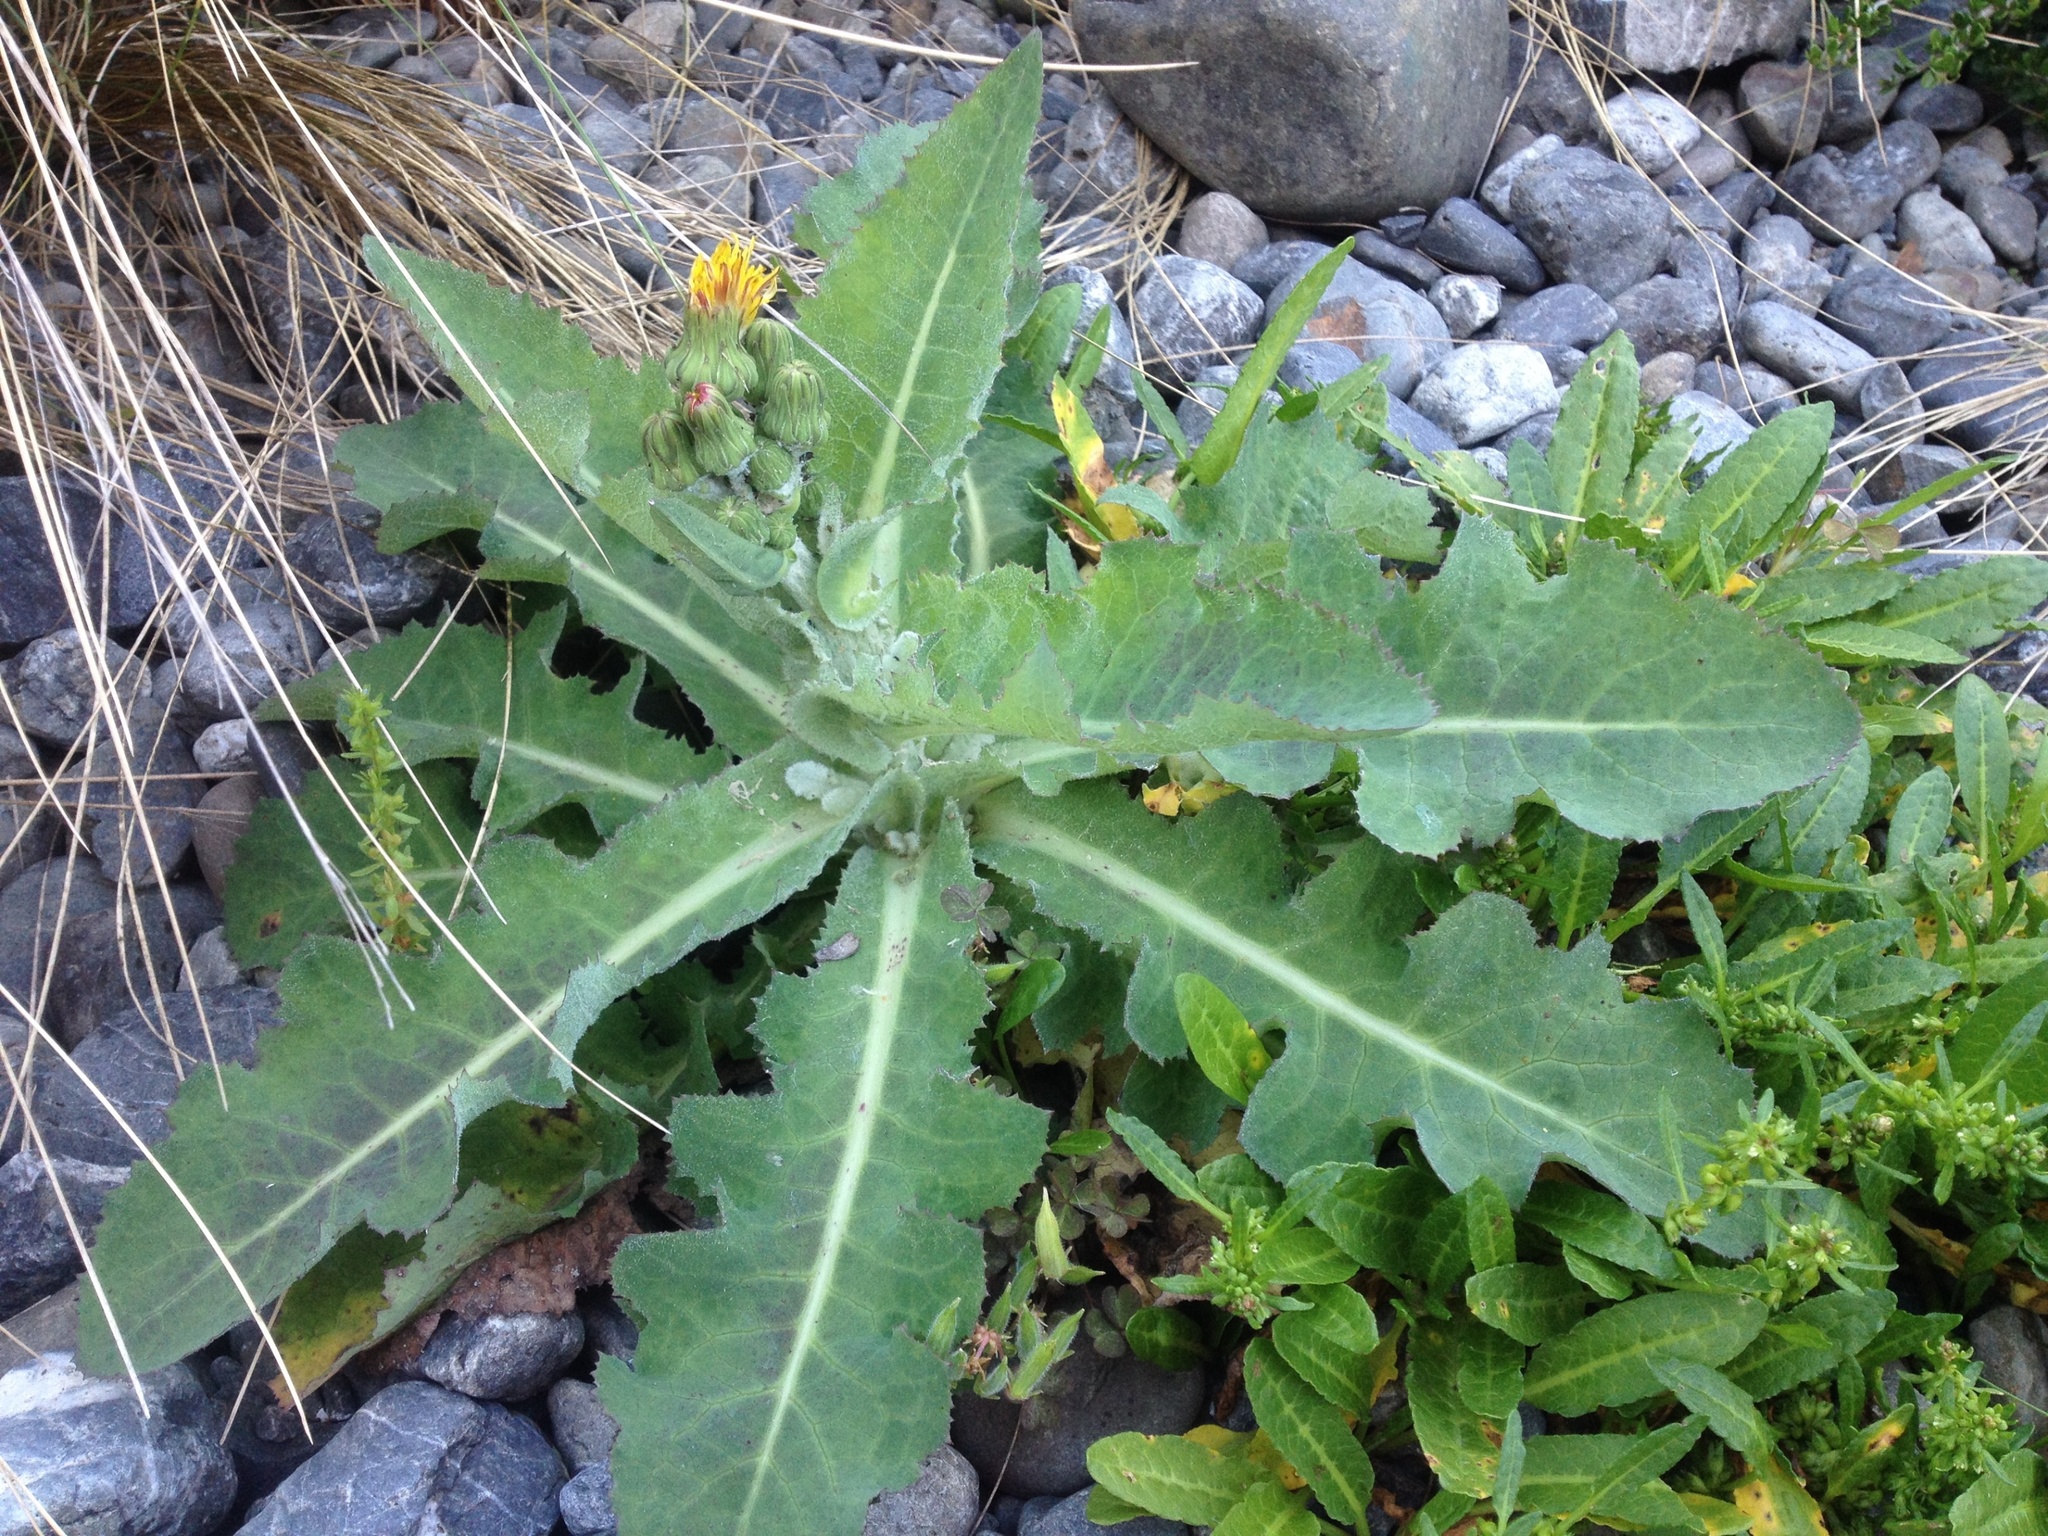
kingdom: Plantae
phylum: Tracheophyta
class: Magnoliopsida
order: Asterales
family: Asteraceae
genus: Sonchus
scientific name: Sonchus kirkii
